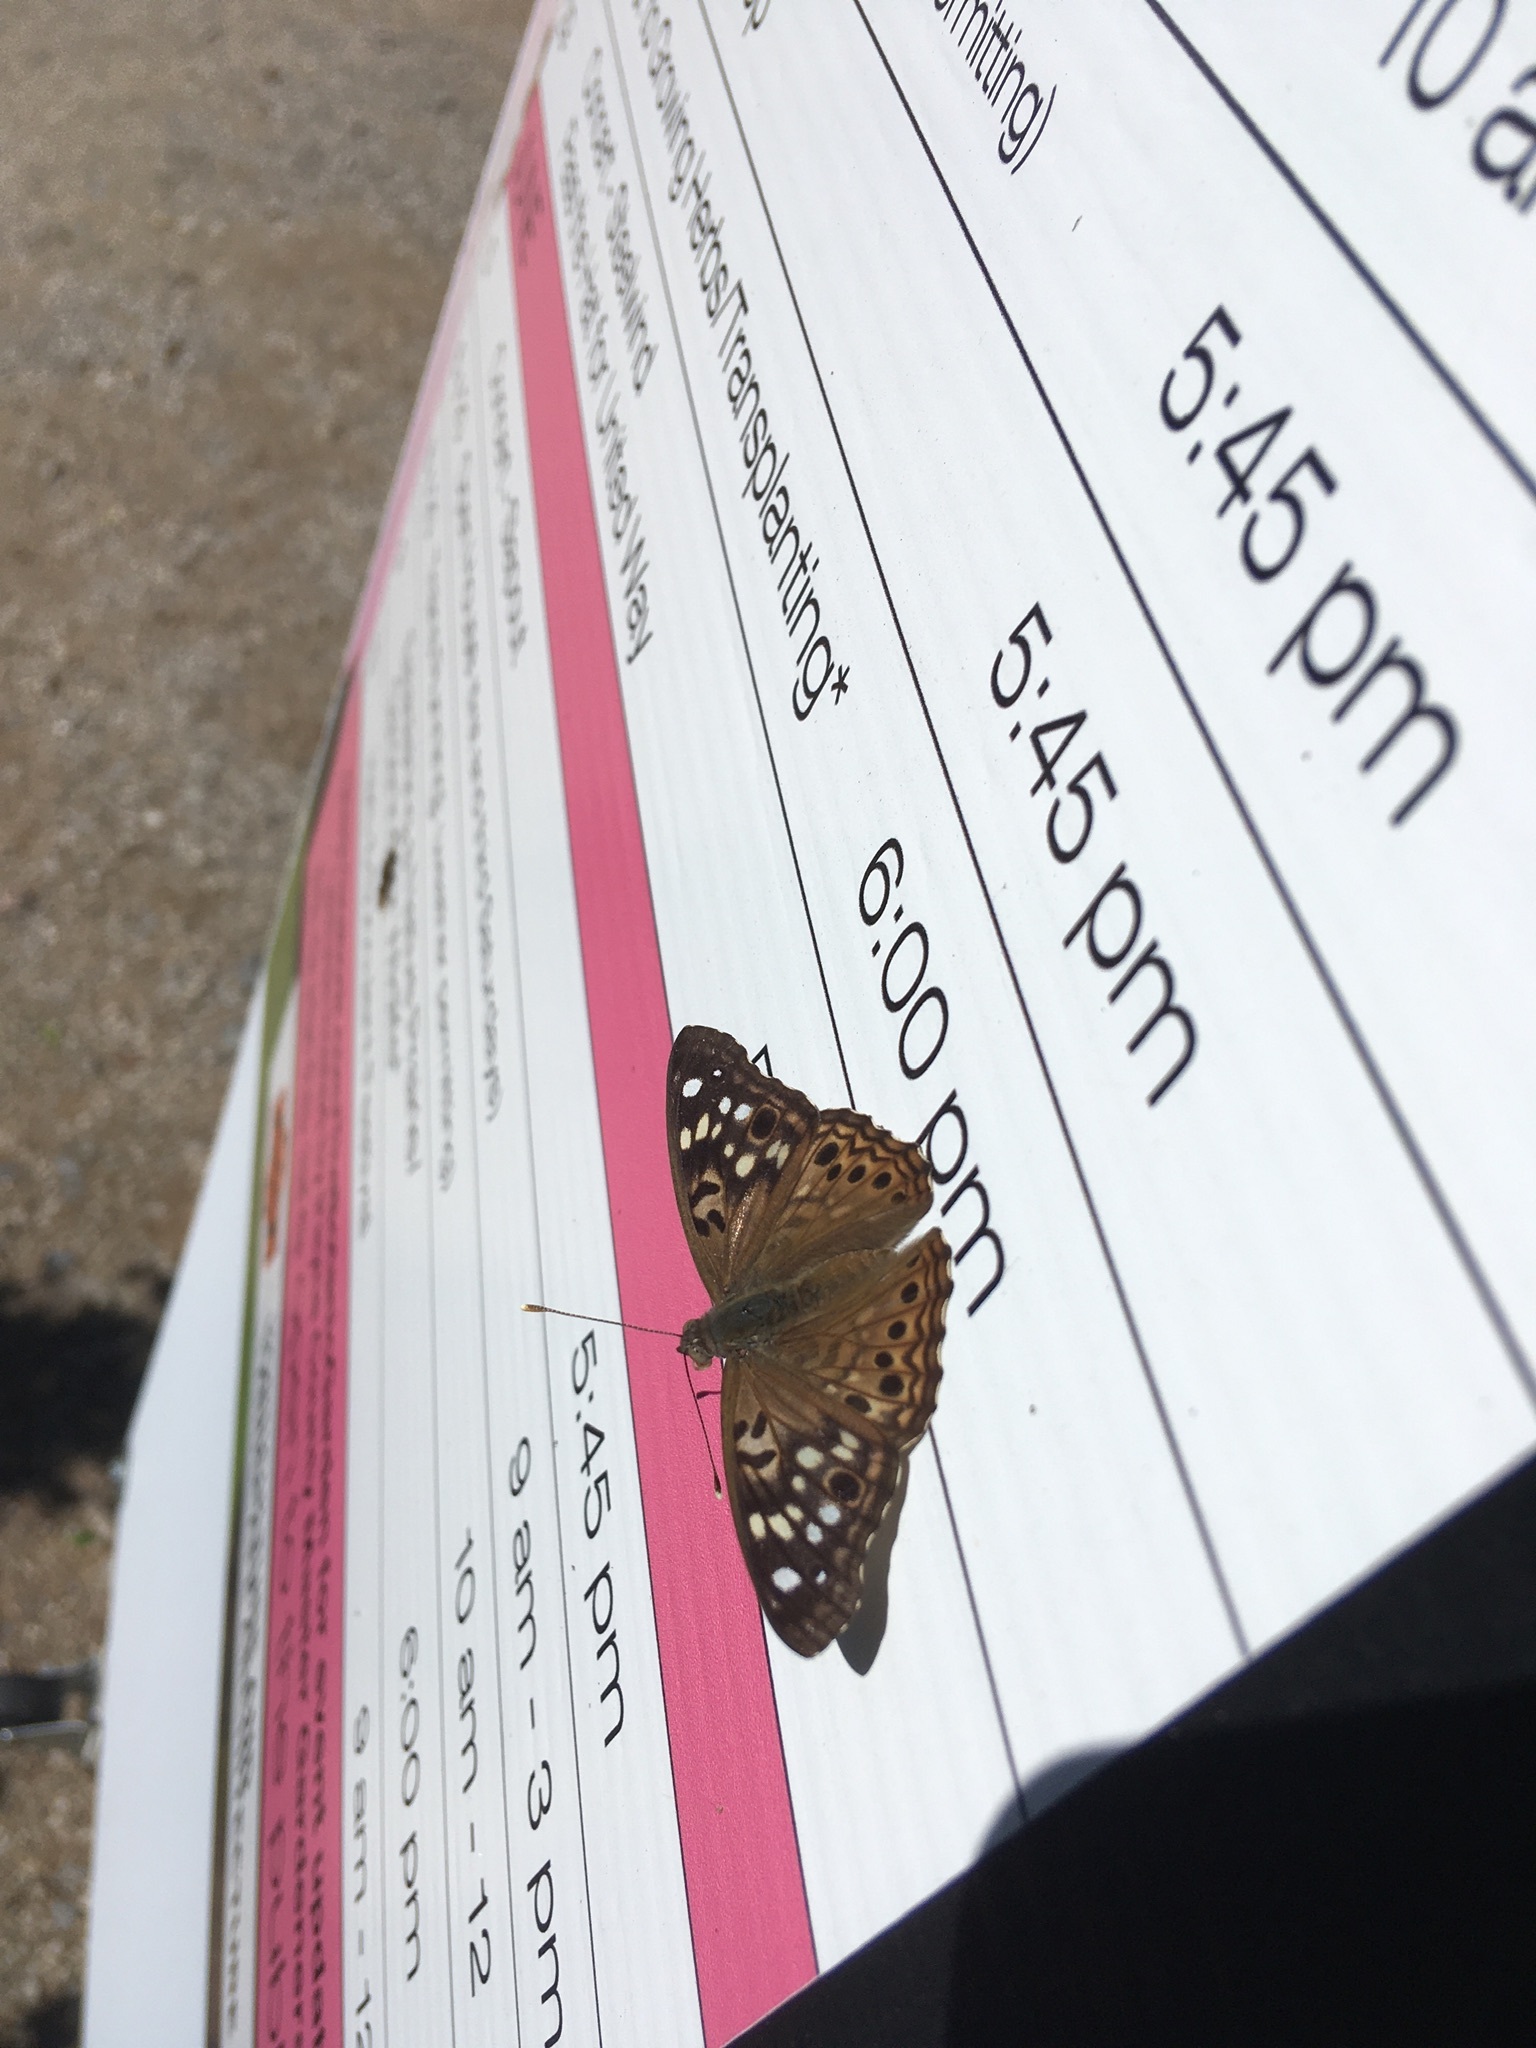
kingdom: Animalia
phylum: Arthropoda
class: Insecta
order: Lepidoptera
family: Nymphalidae
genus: Asterocampa
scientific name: Asterocampa celtis
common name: Hackberry emperor
